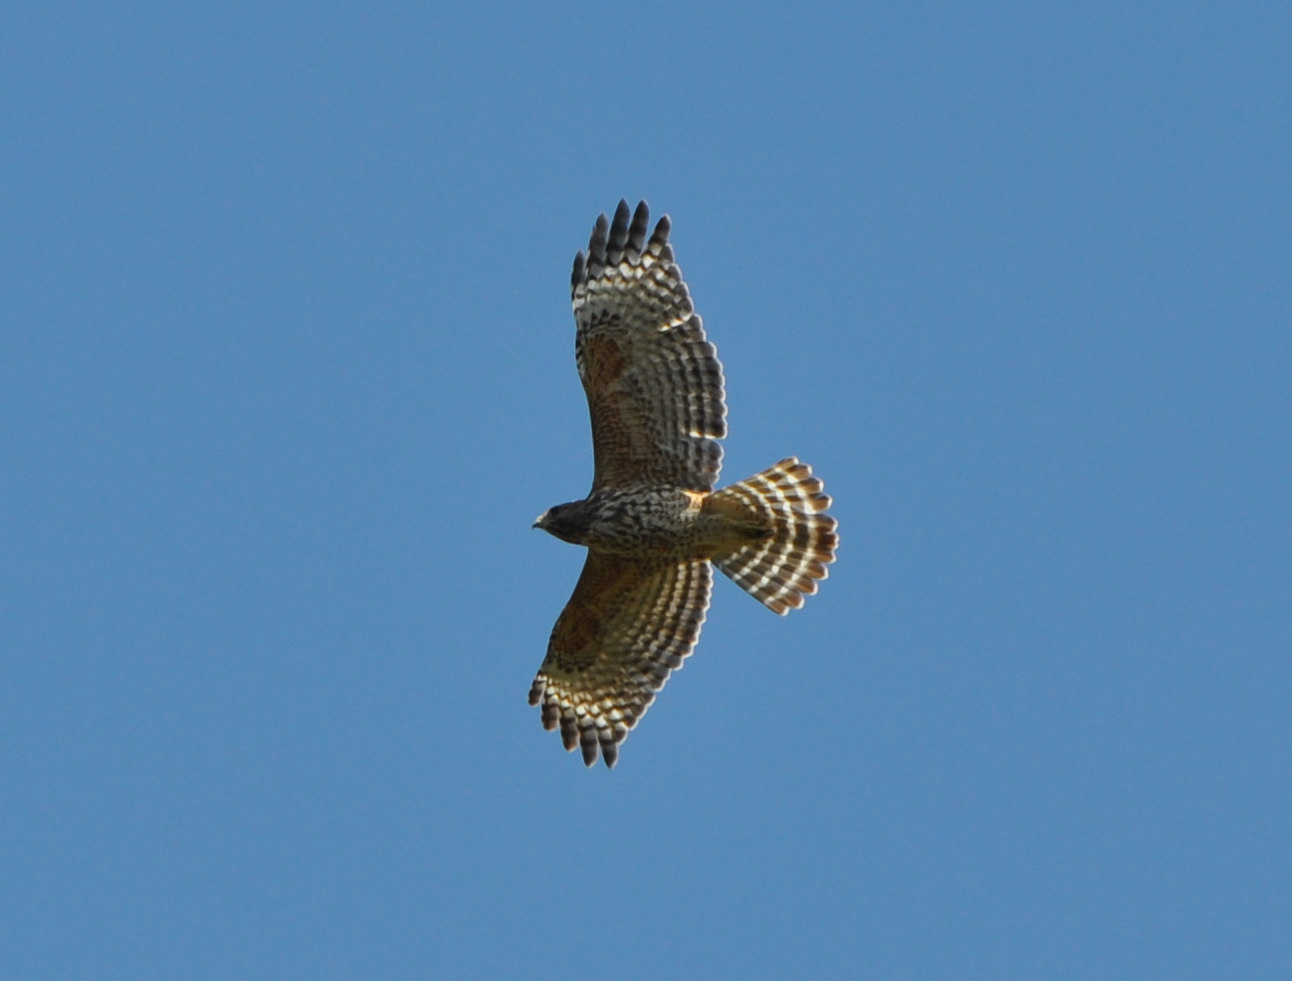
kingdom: Animalia
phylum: Chordata
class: Aves
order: Accipitriformes
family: Accipitridae
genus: Buteo
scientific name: Buteo lineatus
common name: Red-shouldered hawk
